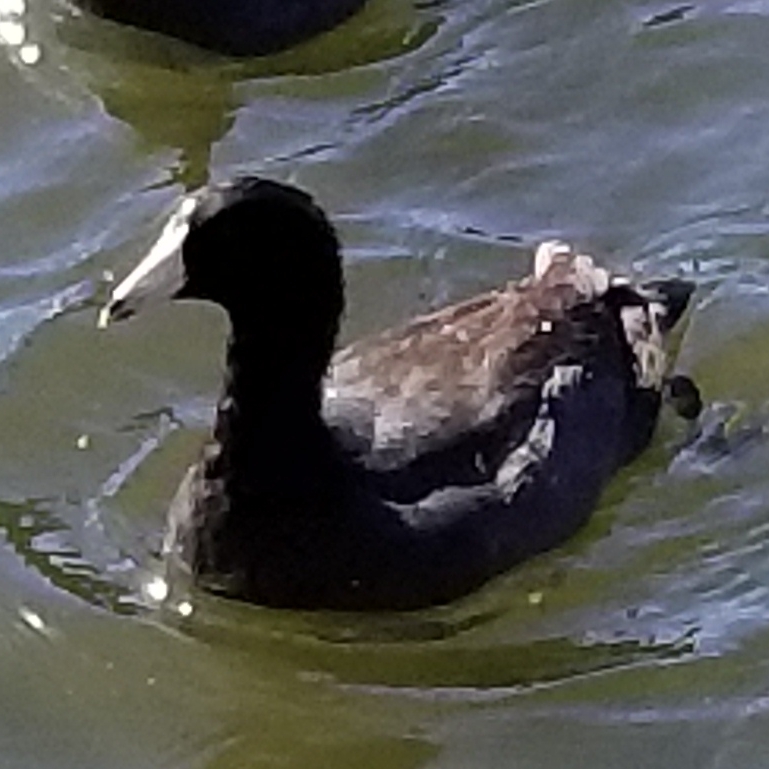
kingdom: Animalia
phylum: Chordata
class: Aves
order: Gruiformes
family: Rallidae
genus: Fulica
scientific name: Fulica americana
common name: American coot
